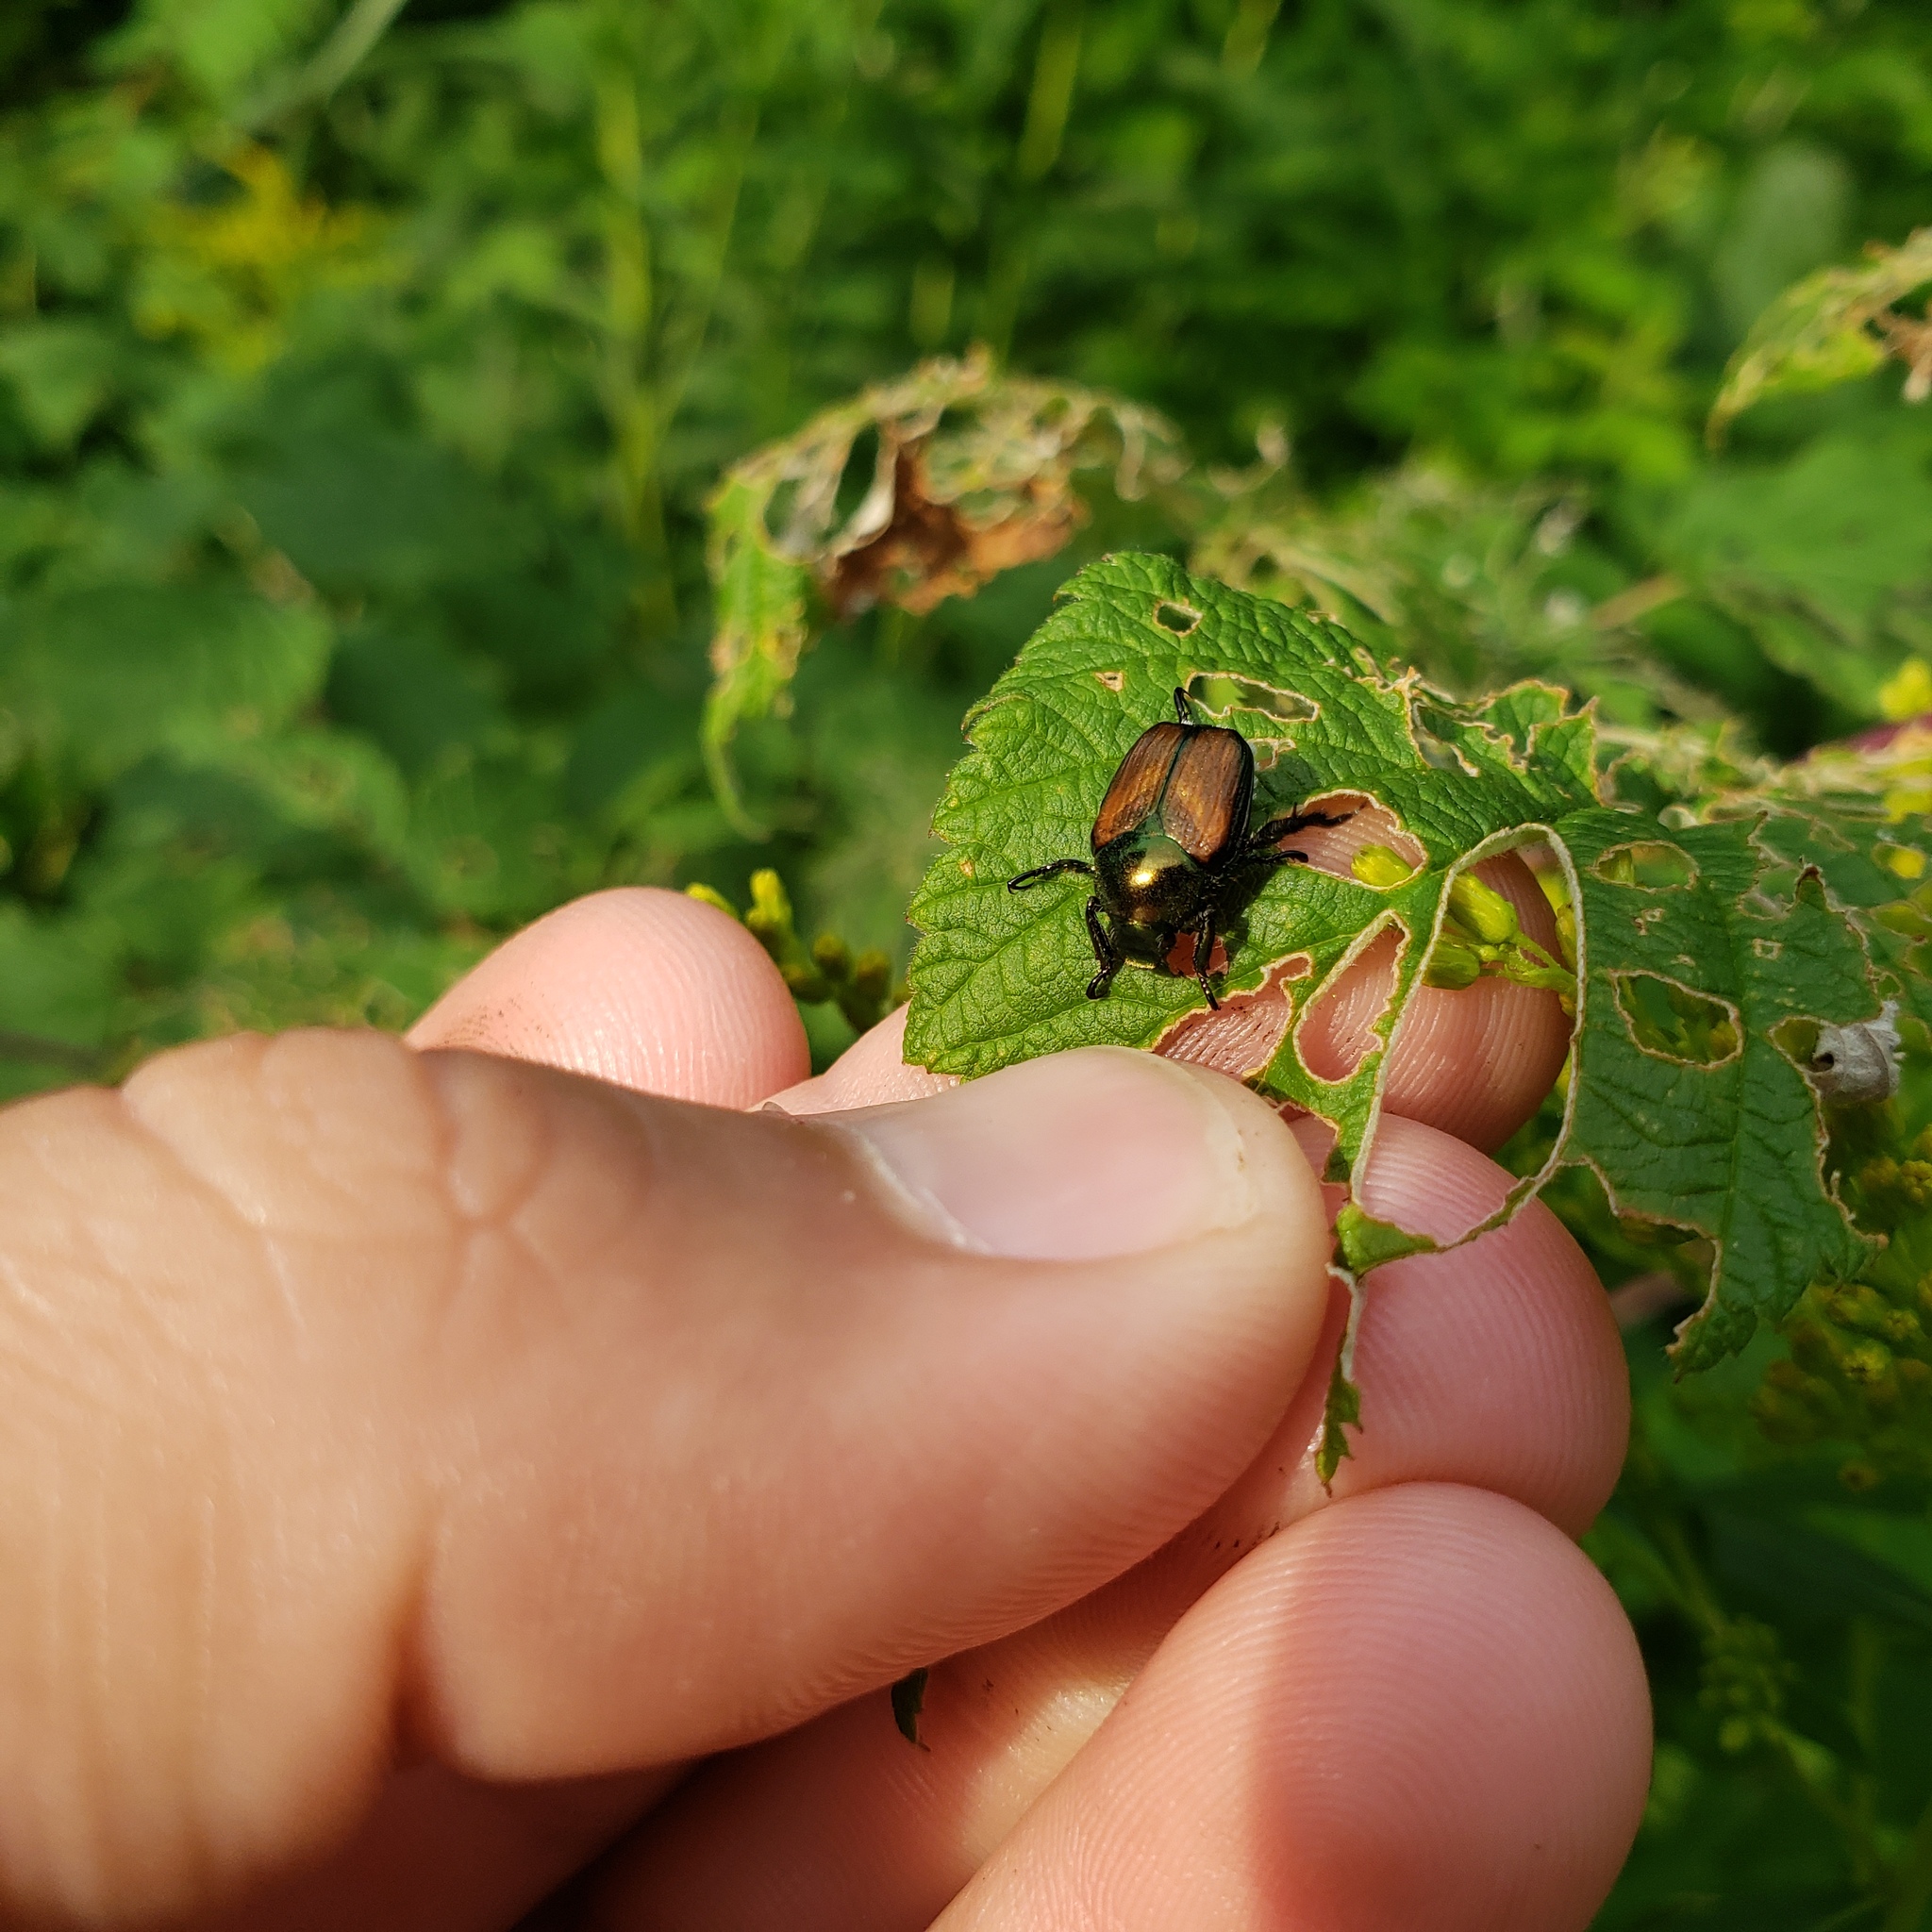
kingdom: Animalia
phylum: Arthropoda
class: Insecta
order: Coleoptera
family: Scarabaeidae
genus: Popillia
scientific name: Popillia japonica
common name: Japanese beetle
